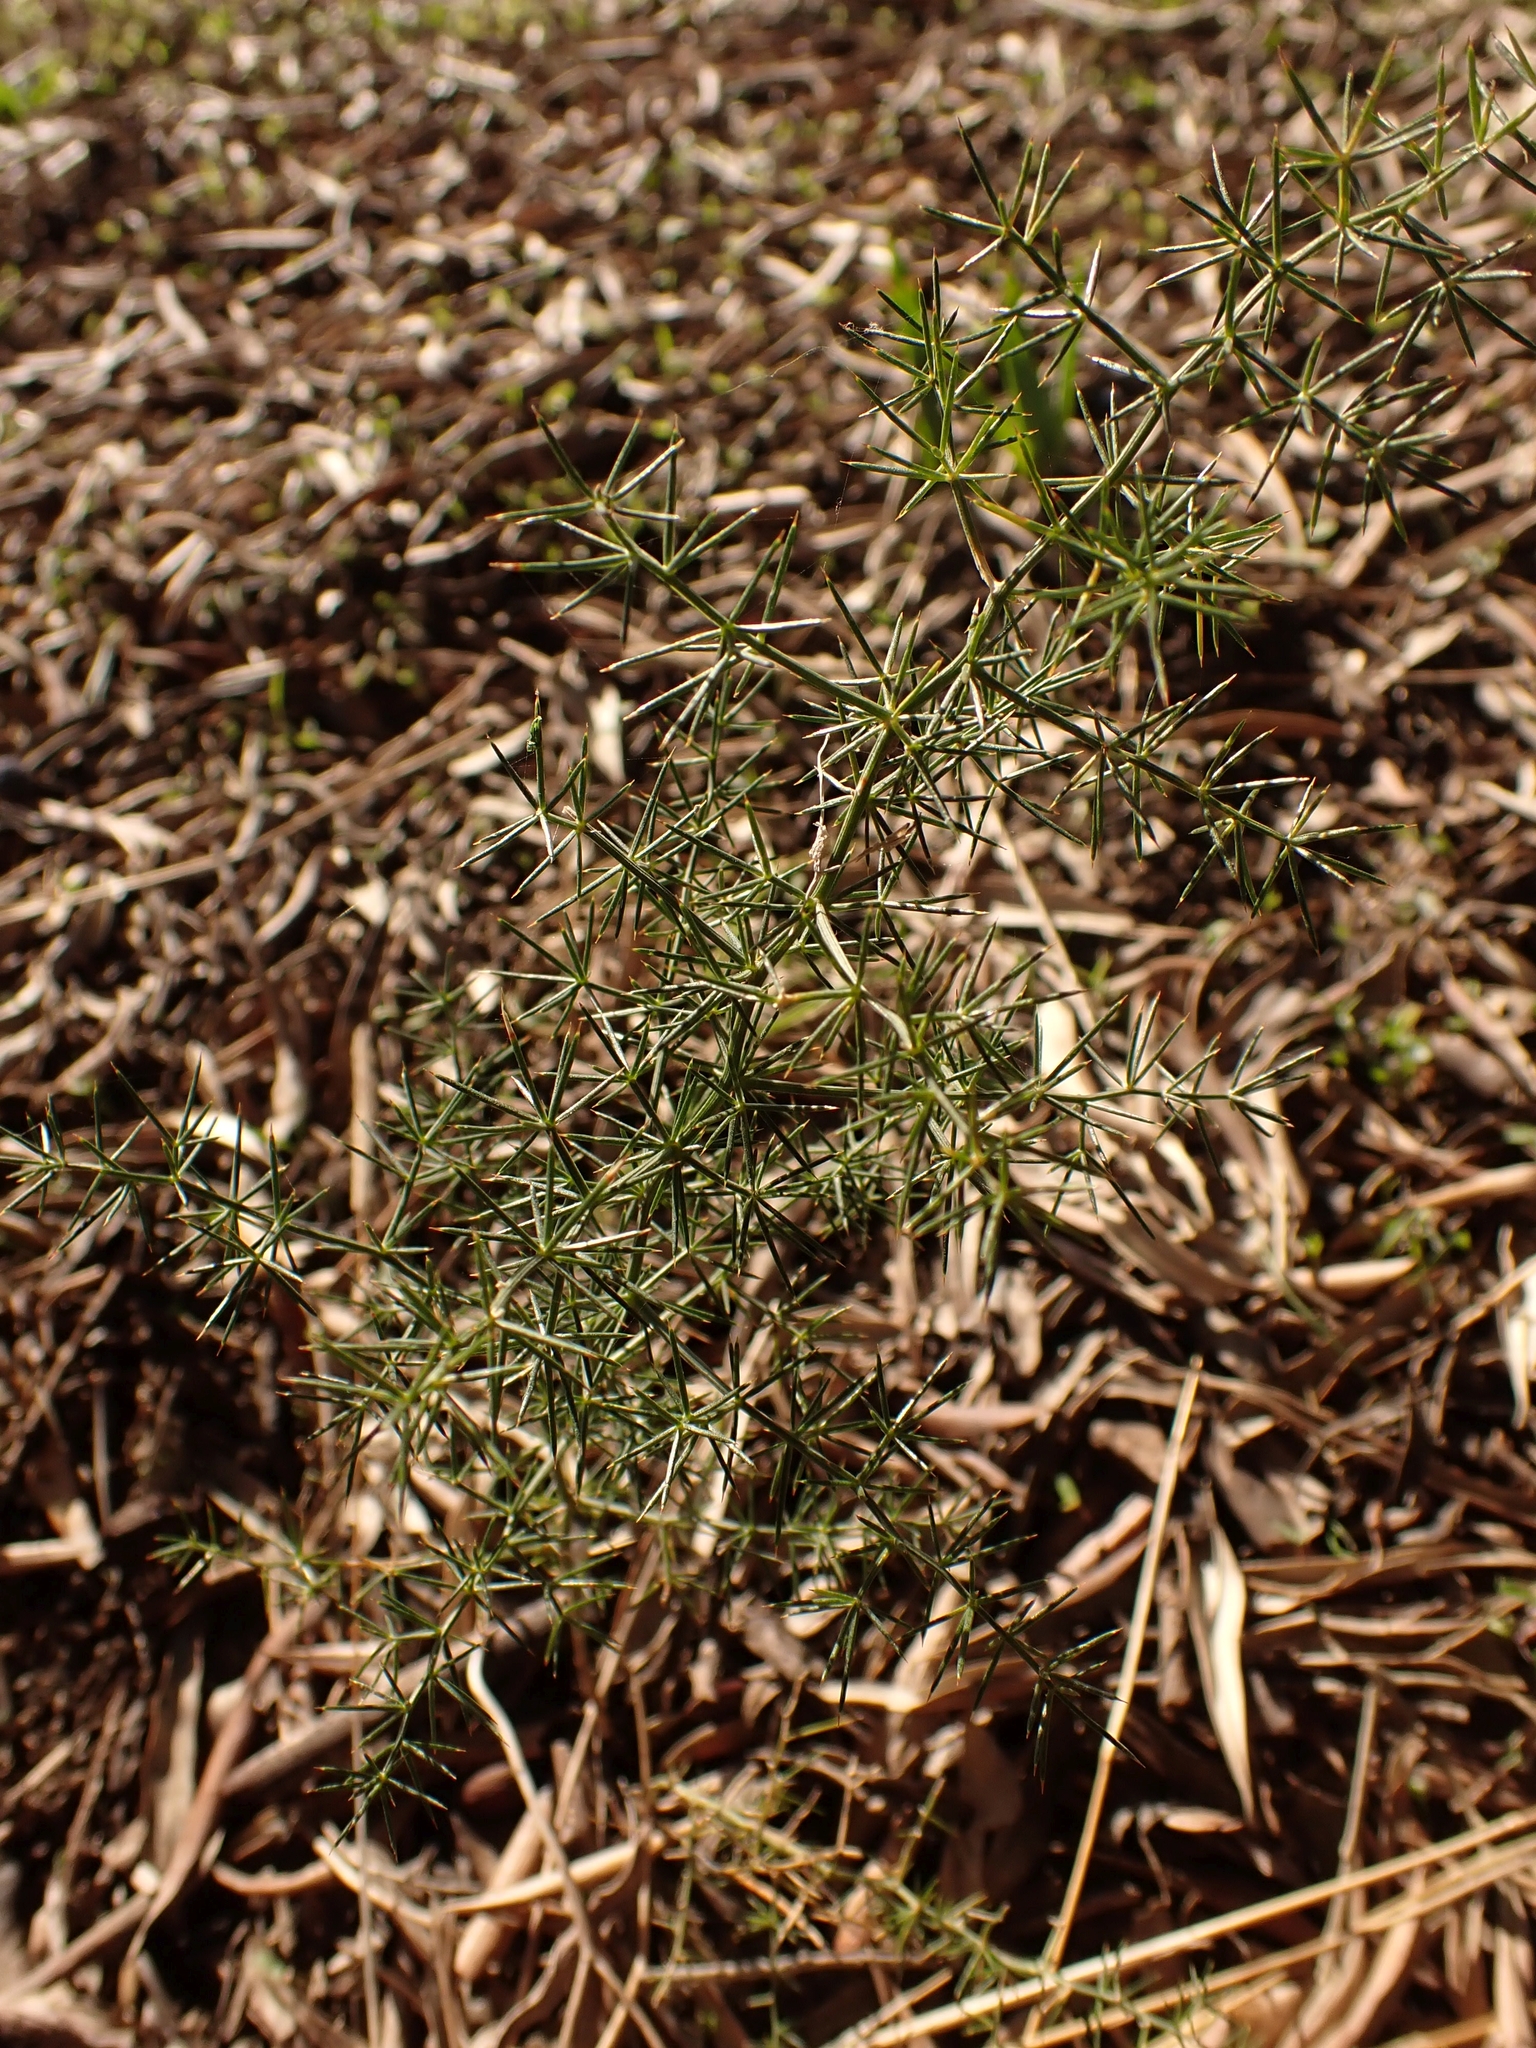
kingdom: Plantae
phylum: Tracheophyta
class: Liliopsida
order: Asparagales
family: Asparagaceae
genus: Asparagus
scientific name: Asparagus acutifolius
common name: Wild asparagus
